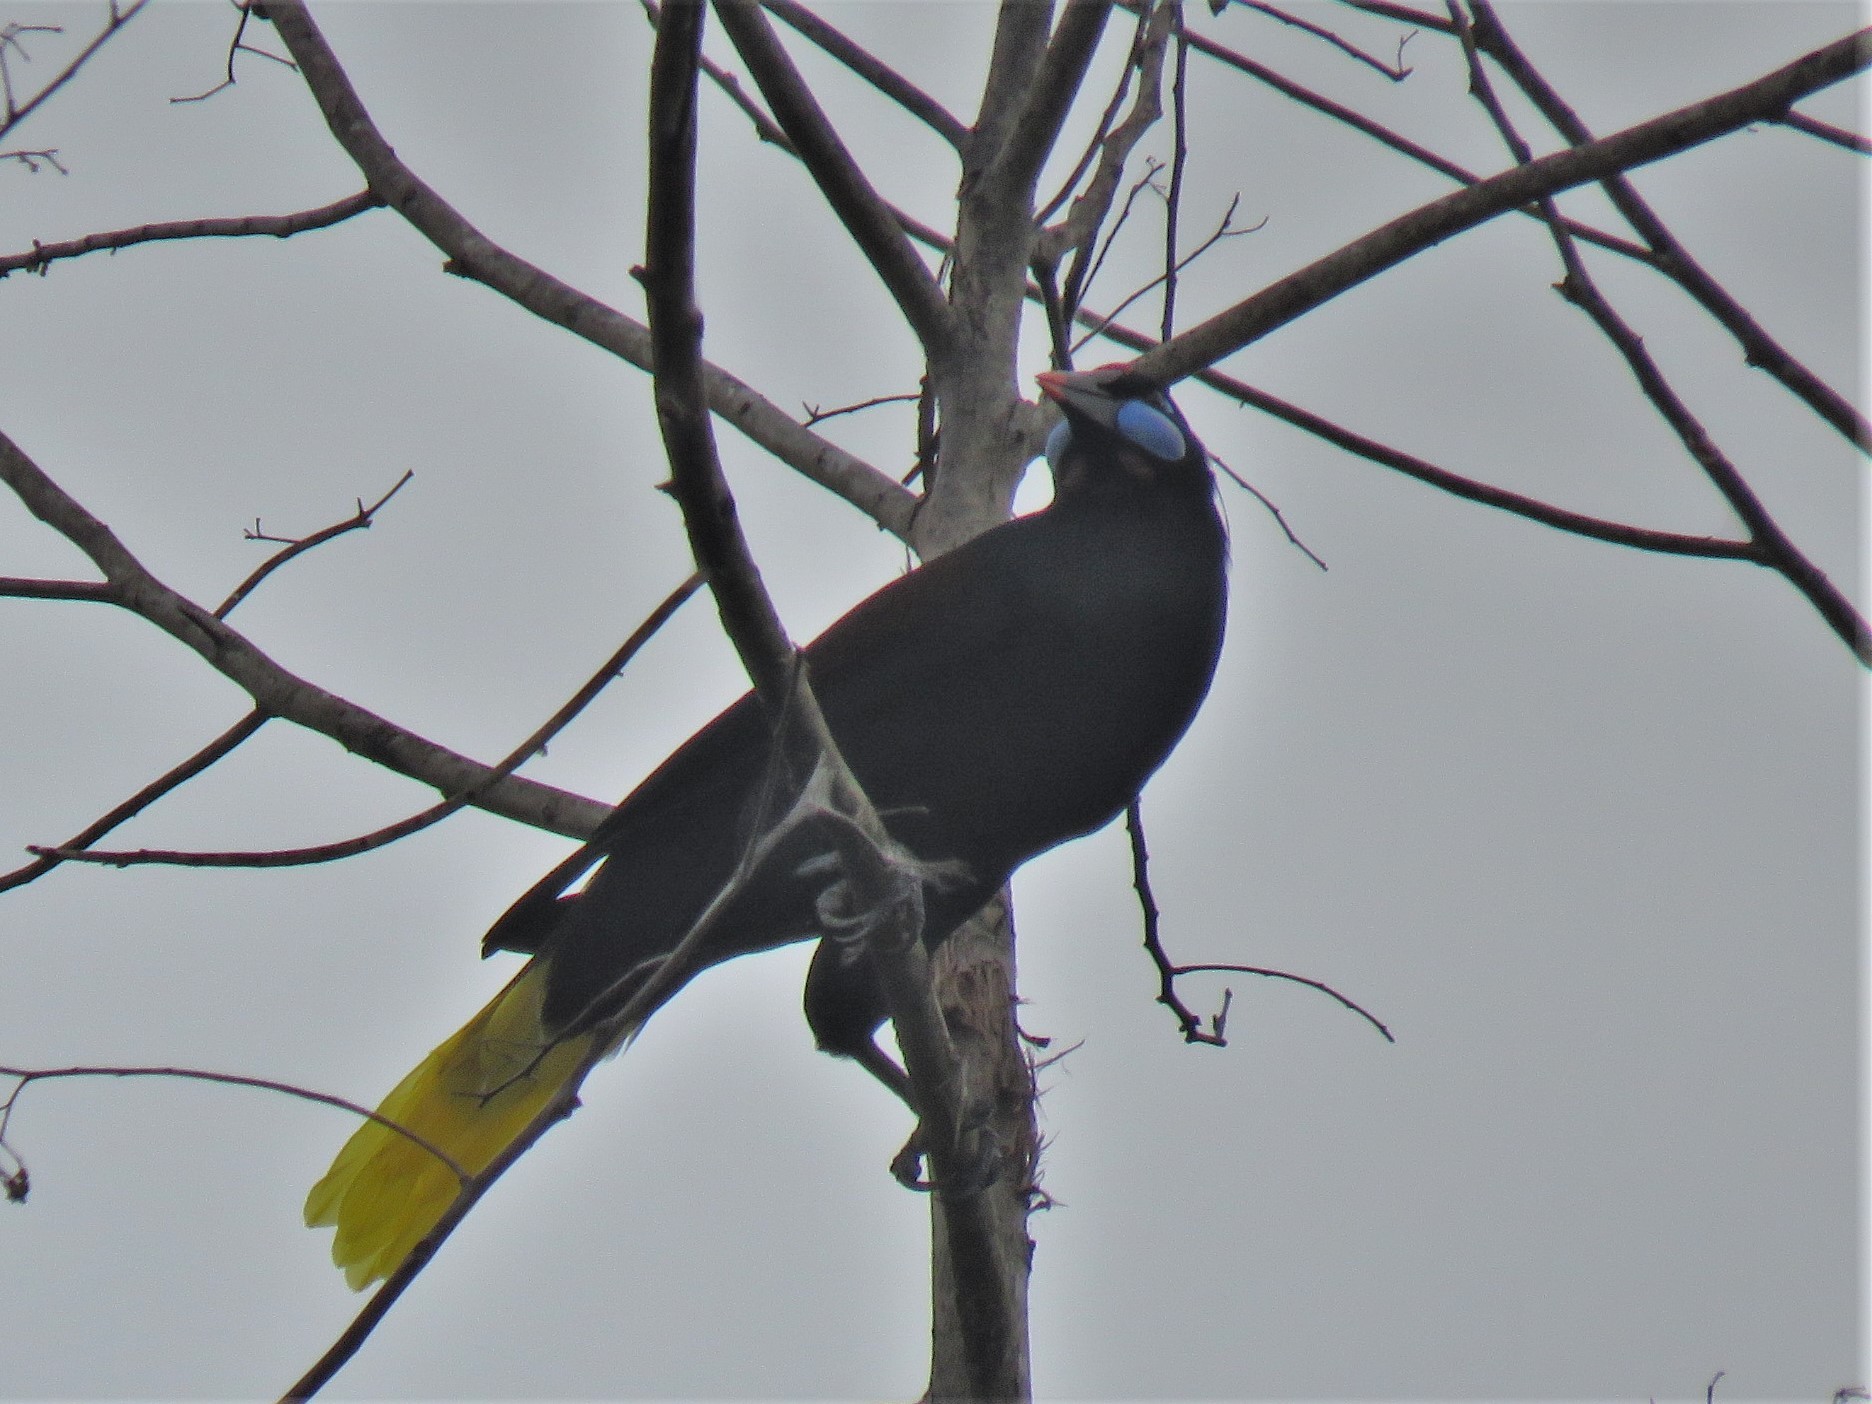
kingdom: Animalia
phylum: Chordata
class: Aves
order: Passeriformes
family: Icteridae
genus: Psarocolius
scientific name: Psarocolius guatimozinus
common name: Black oropendola
